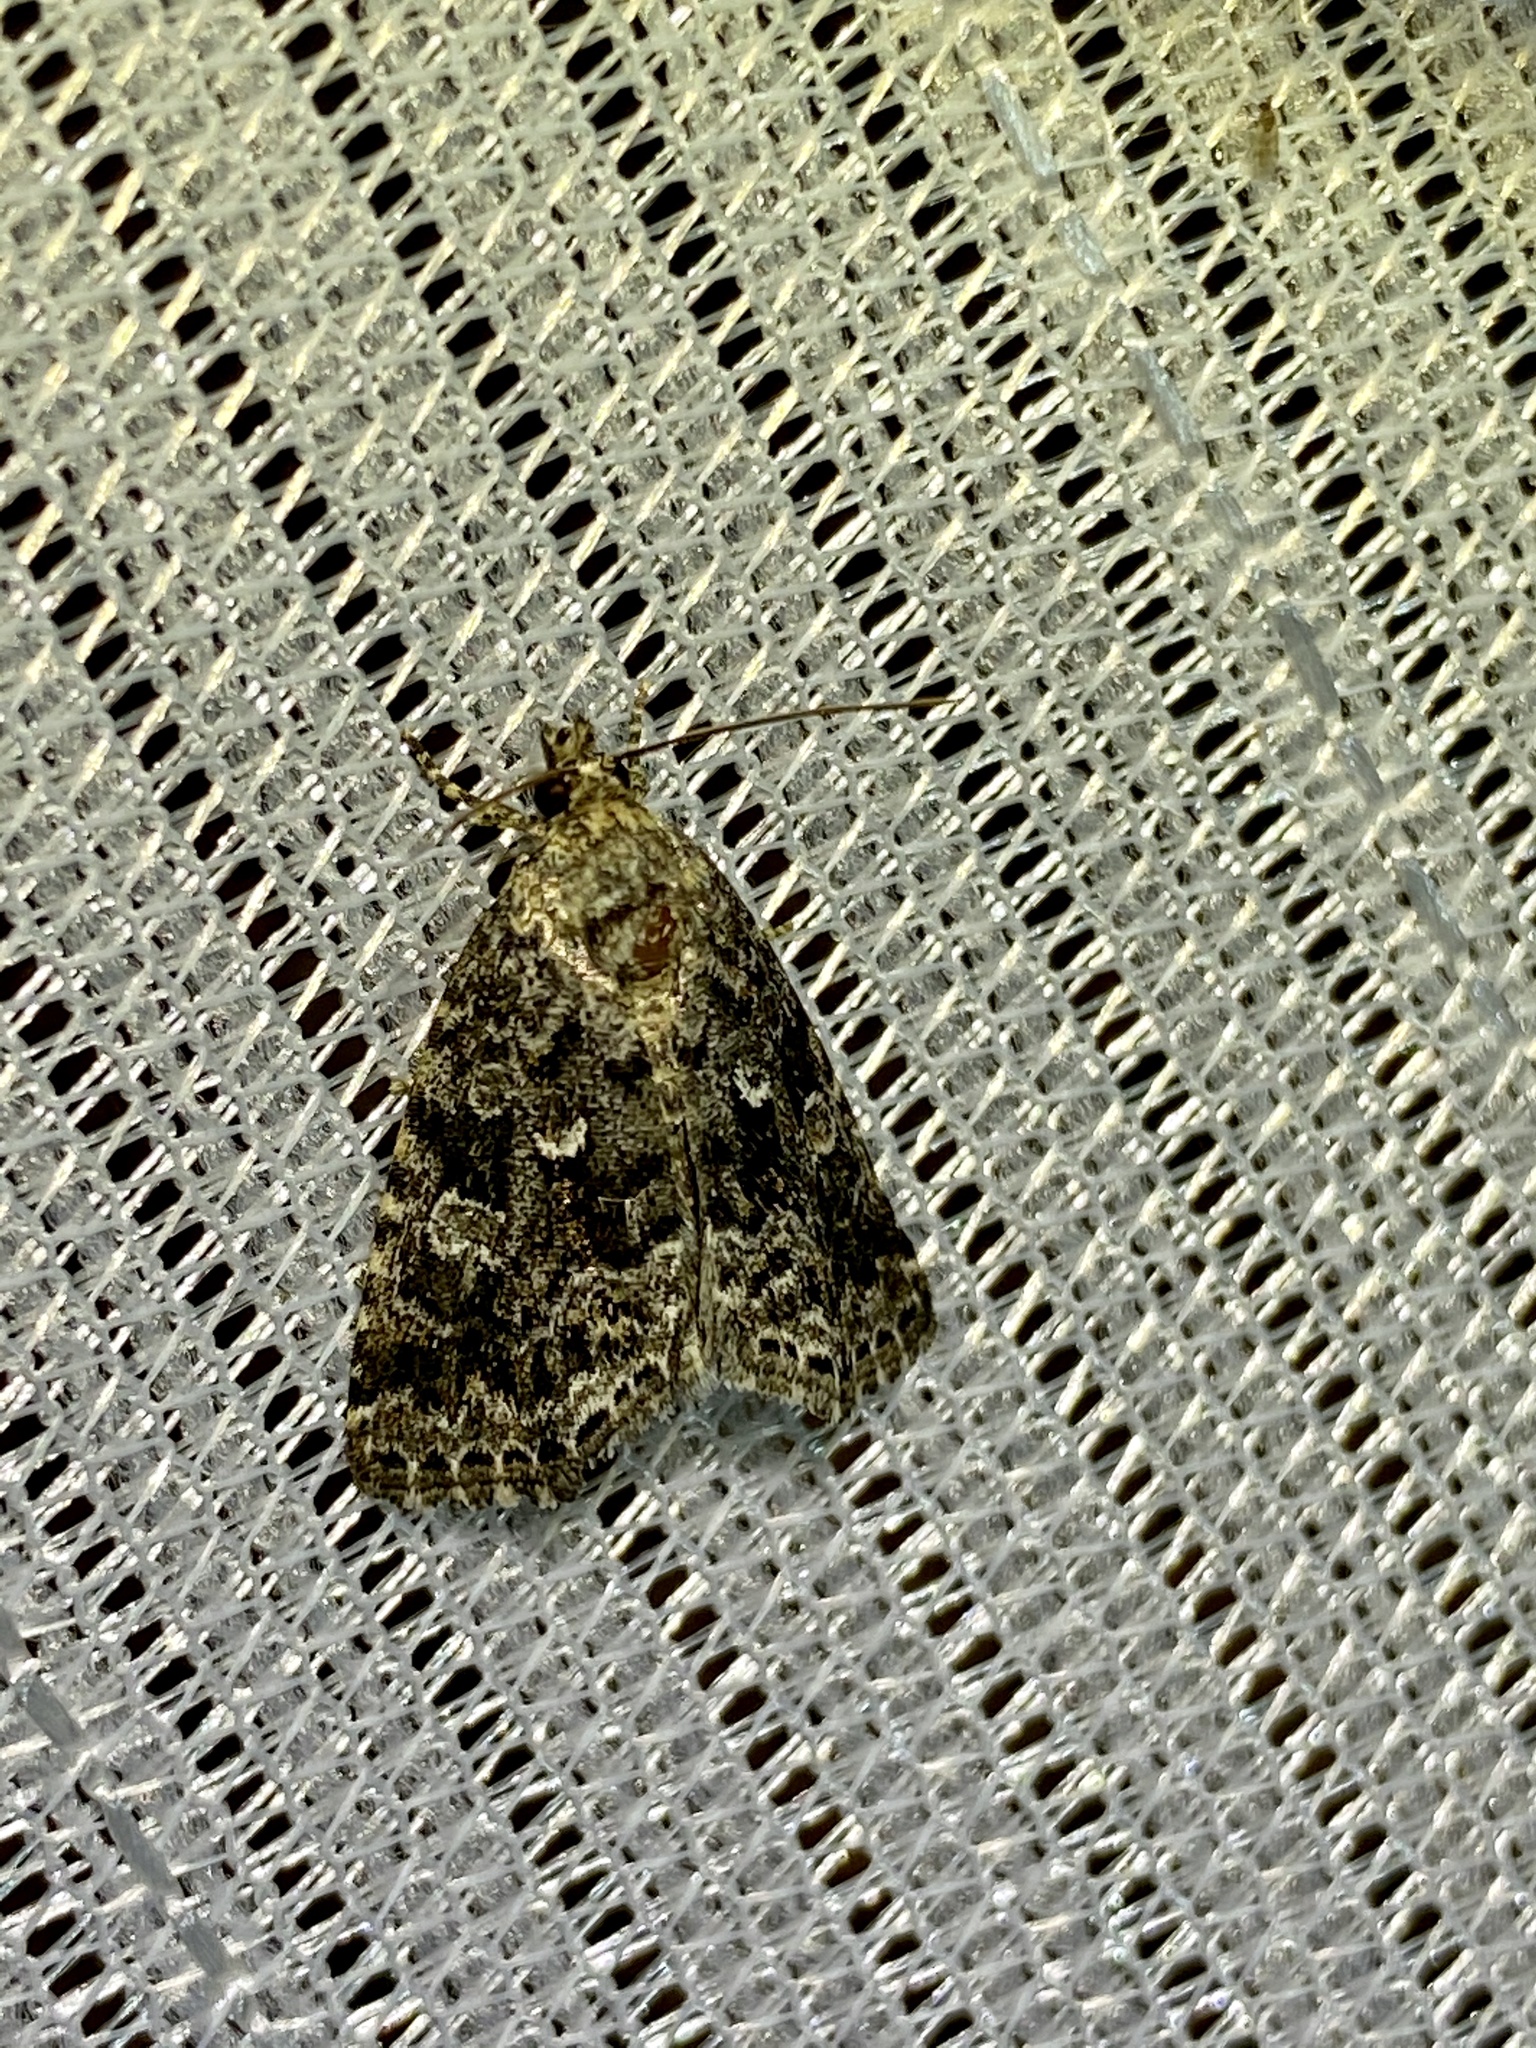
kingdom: Animalia
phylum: Arthropoda
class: Insecta
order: Lepidoptera
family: Noctuidae
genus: Lithacodia
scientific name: Lithacodia distinguenda
